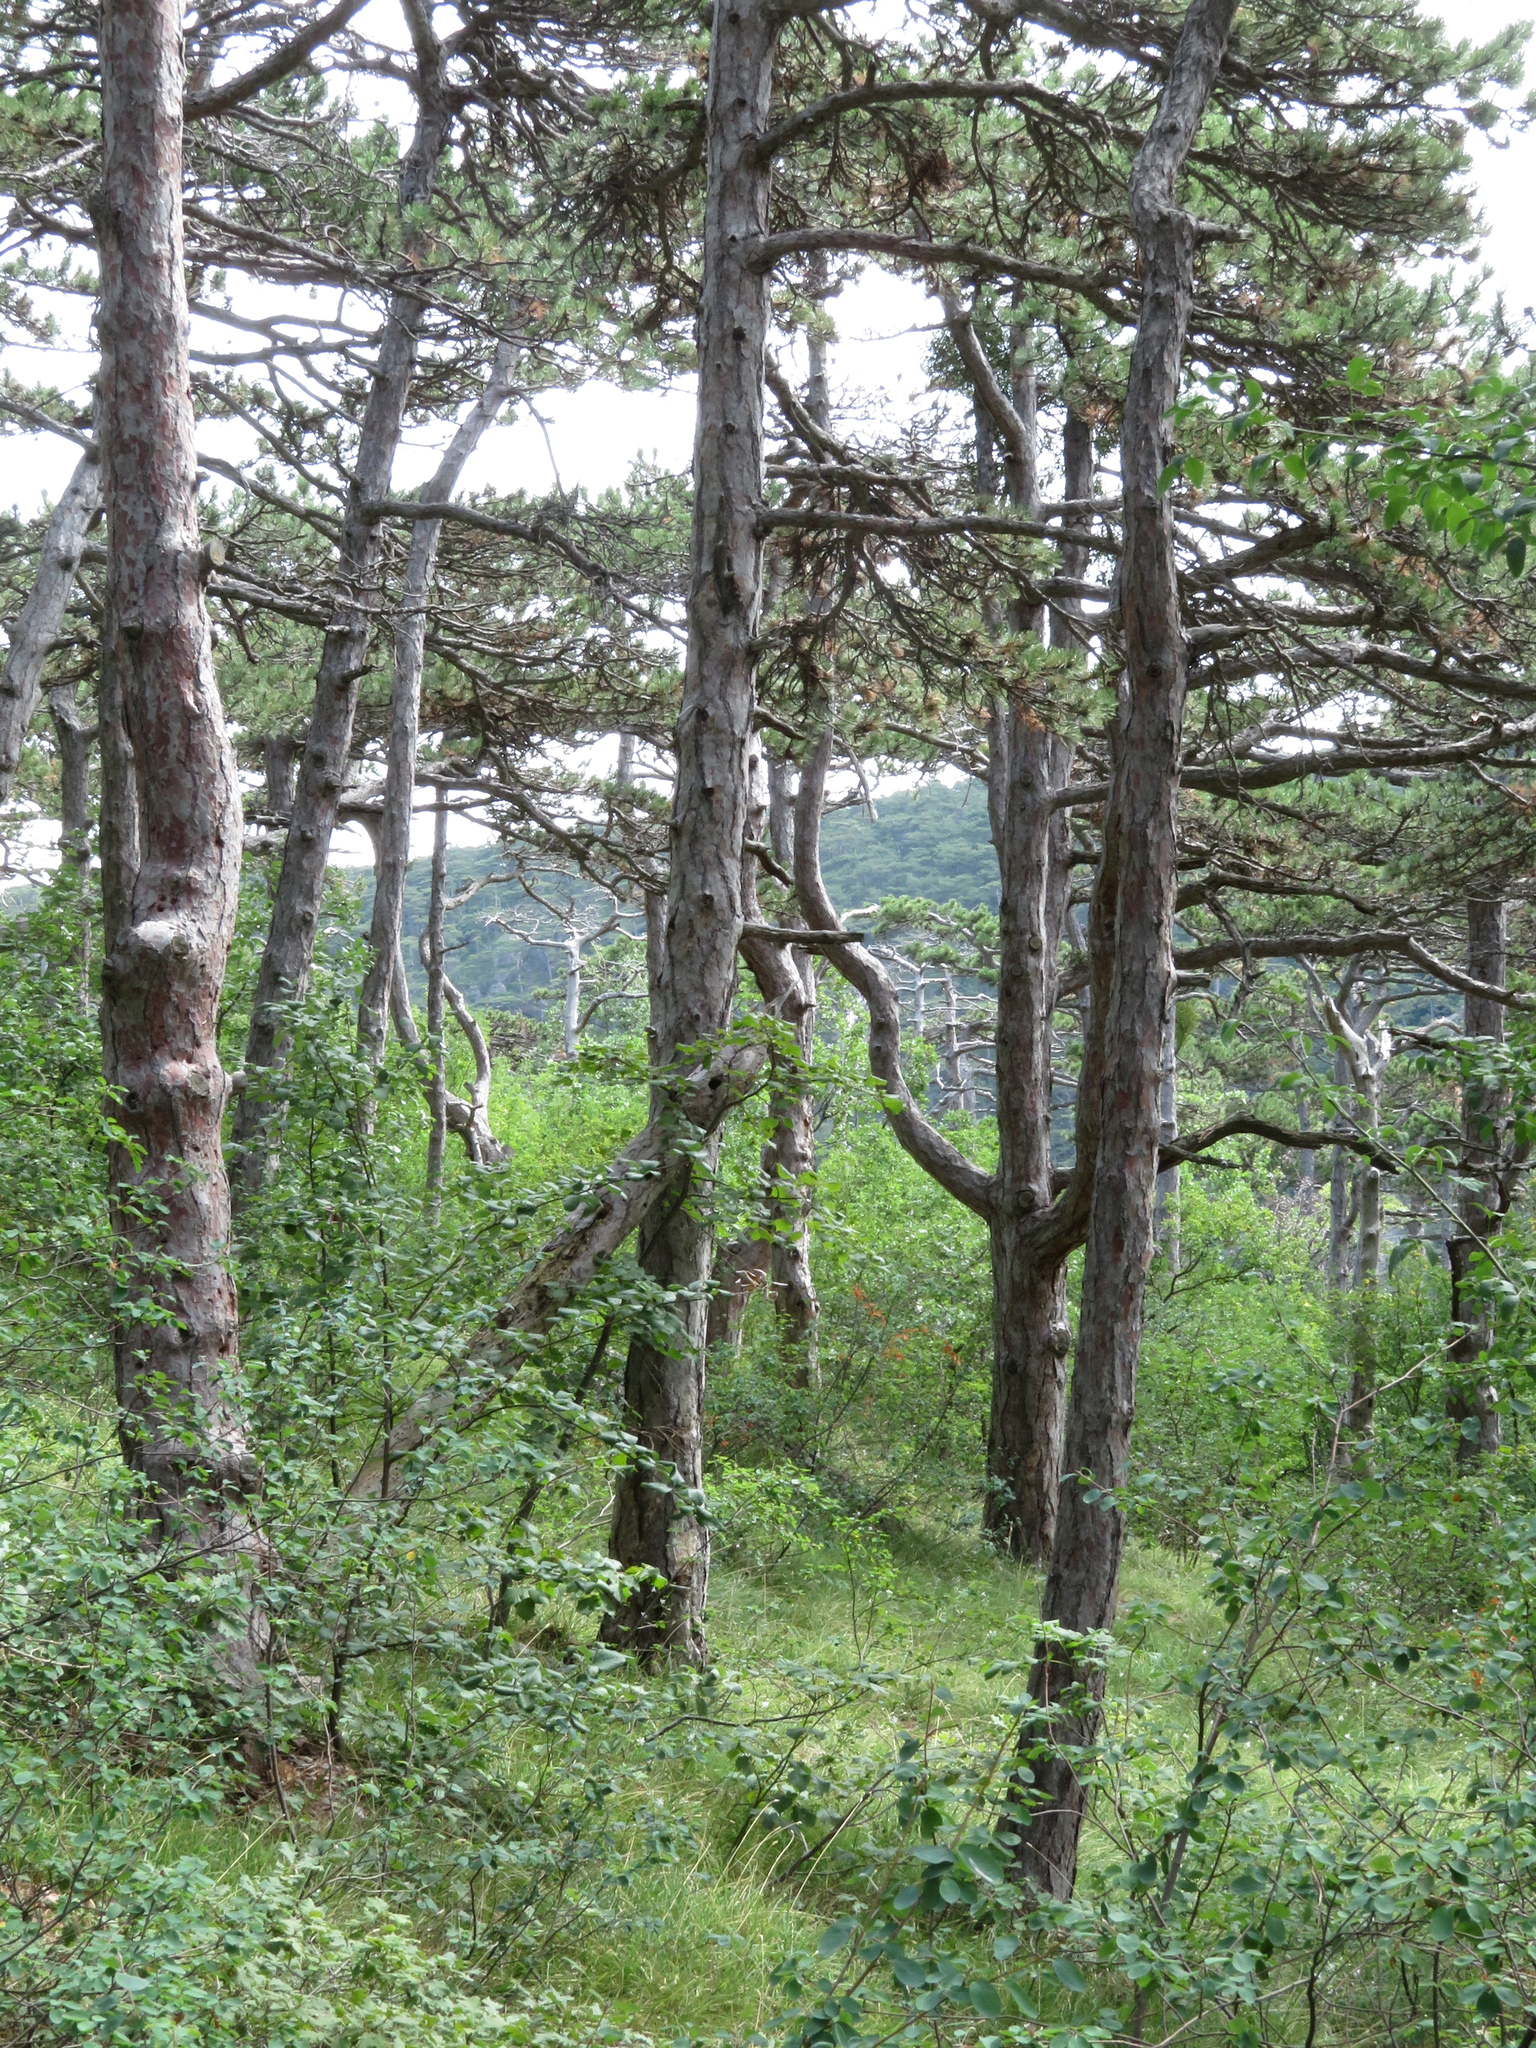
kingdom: Plantae
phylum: Tracheophyta
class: Pinopsida
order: Pinales
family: Pinaceae
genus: Pinus
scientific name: Pinus nigra
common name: Austrian pine
